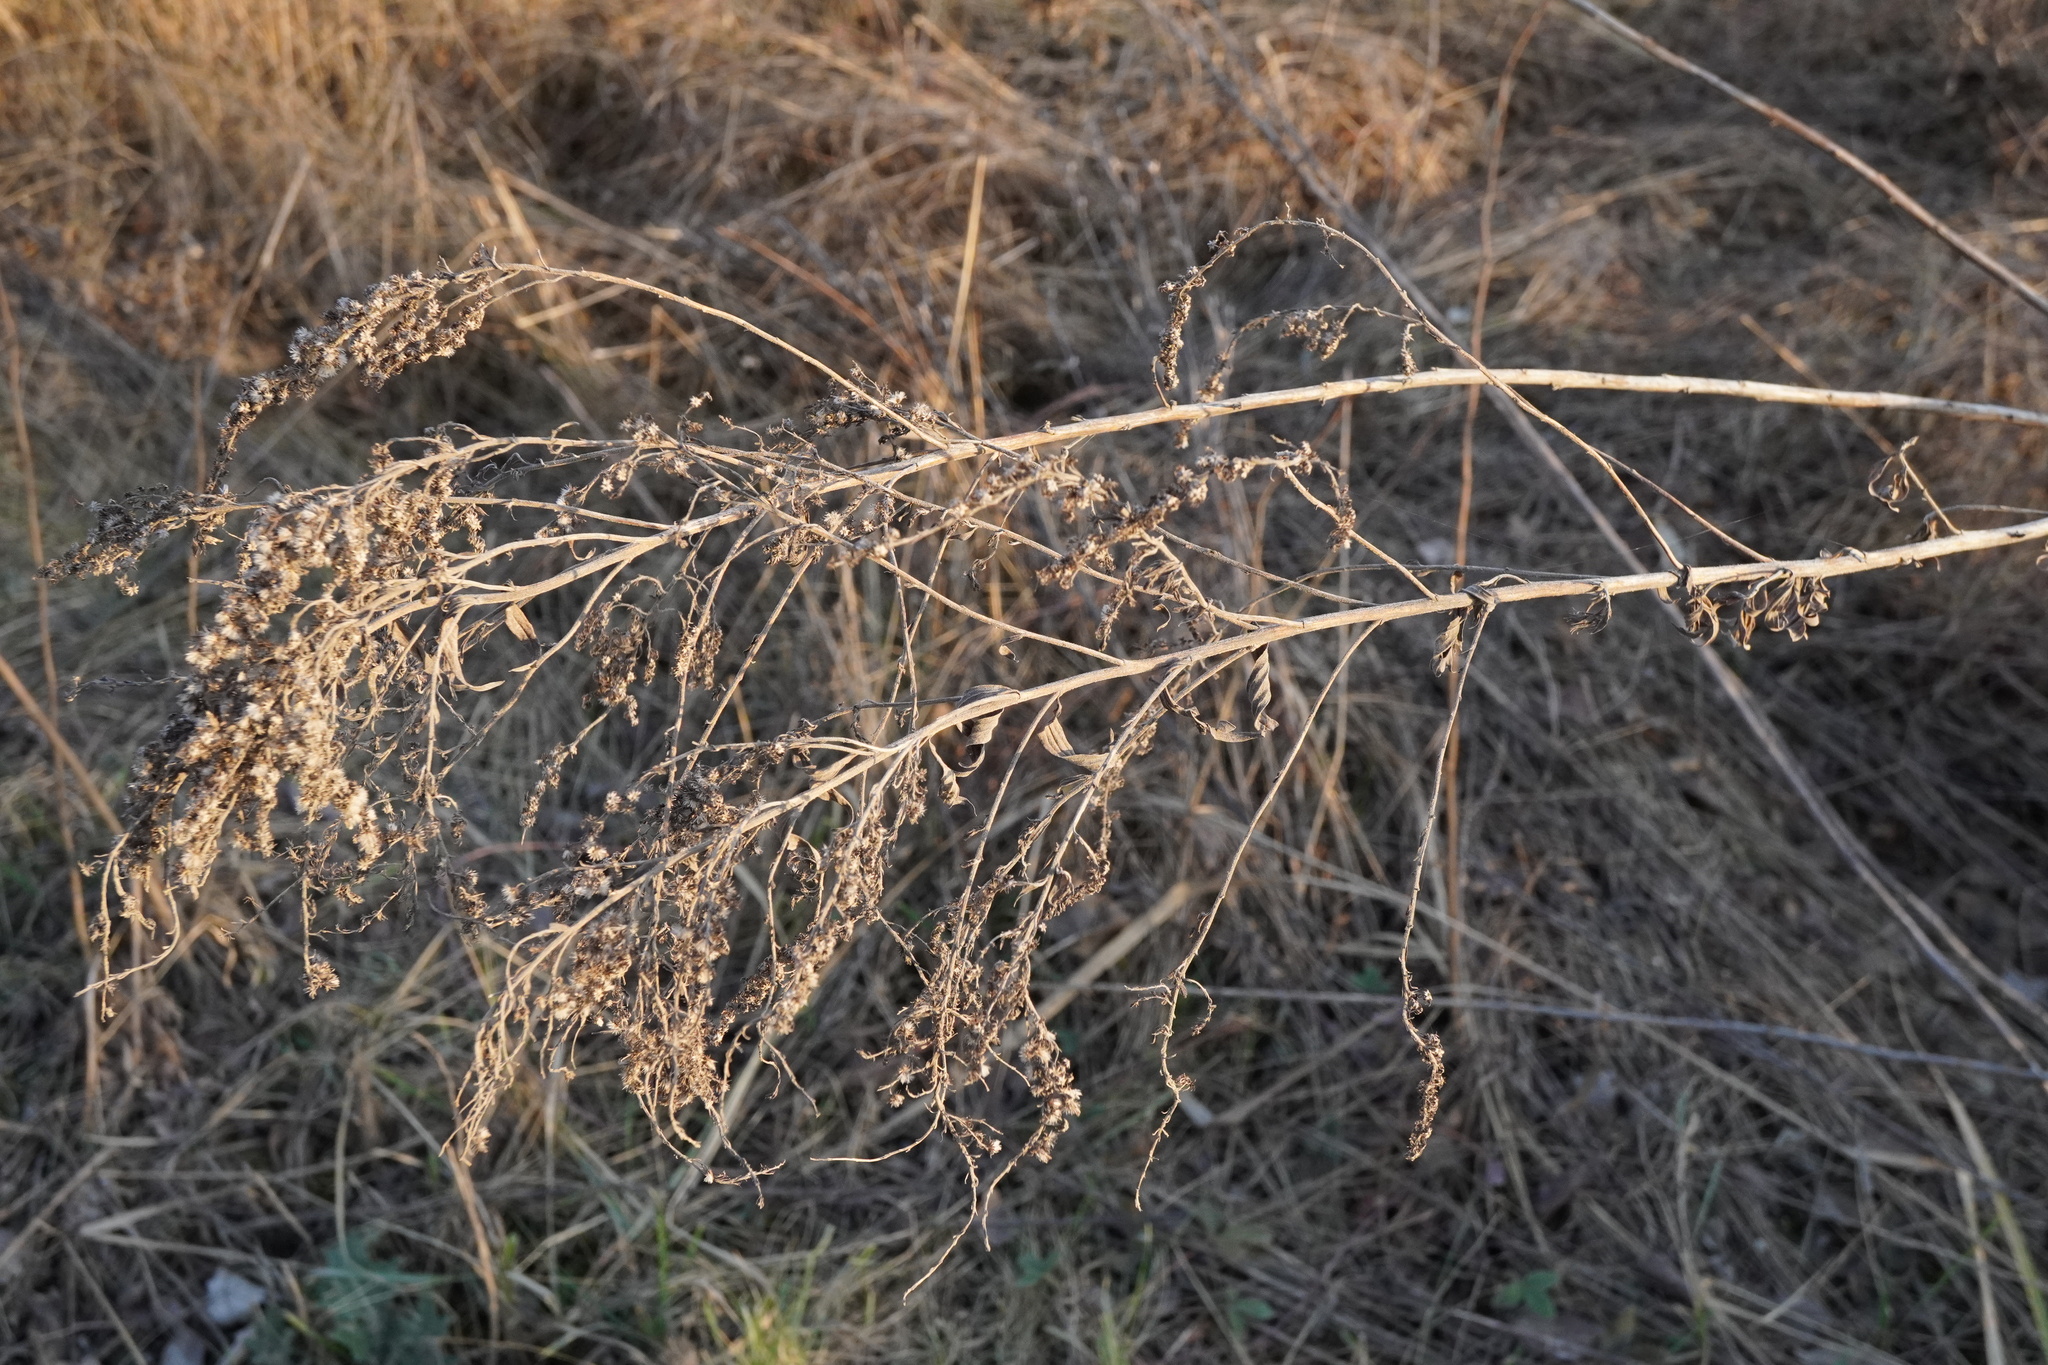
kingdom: Plantae
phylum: Tracheophyta
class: Magnoliopsida
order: Asterales
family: Asteraceae
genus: Solidago
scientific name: Solidago canadensis
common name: Canada goldenrod
